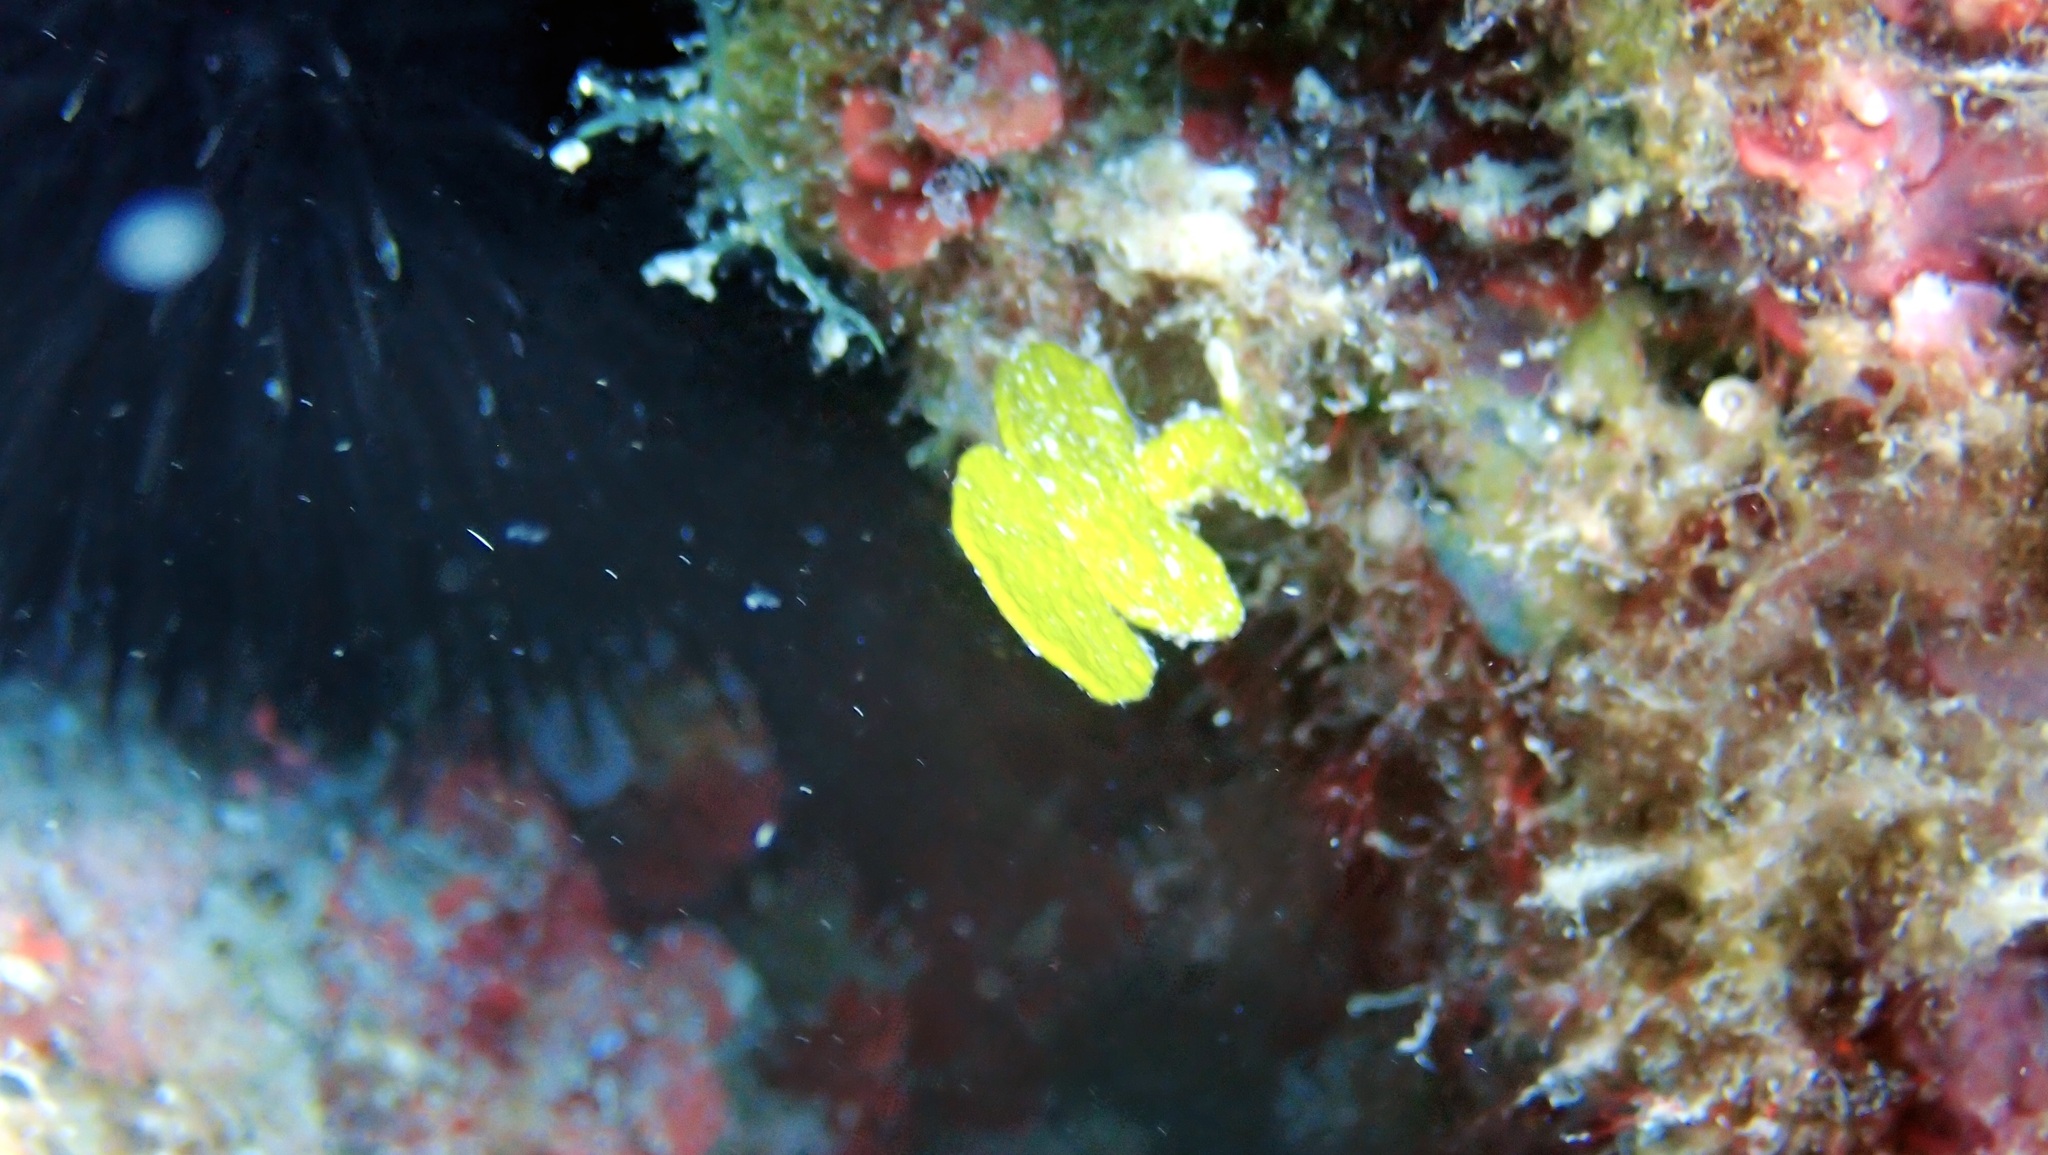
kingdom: Plantae
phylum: Chlorophyta
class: Ulvophyceae
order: Bryopsidales
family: Halimedaceae
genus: Halimeda
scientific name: Halimeda tuna
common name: Stalked lettuce leaf algae
